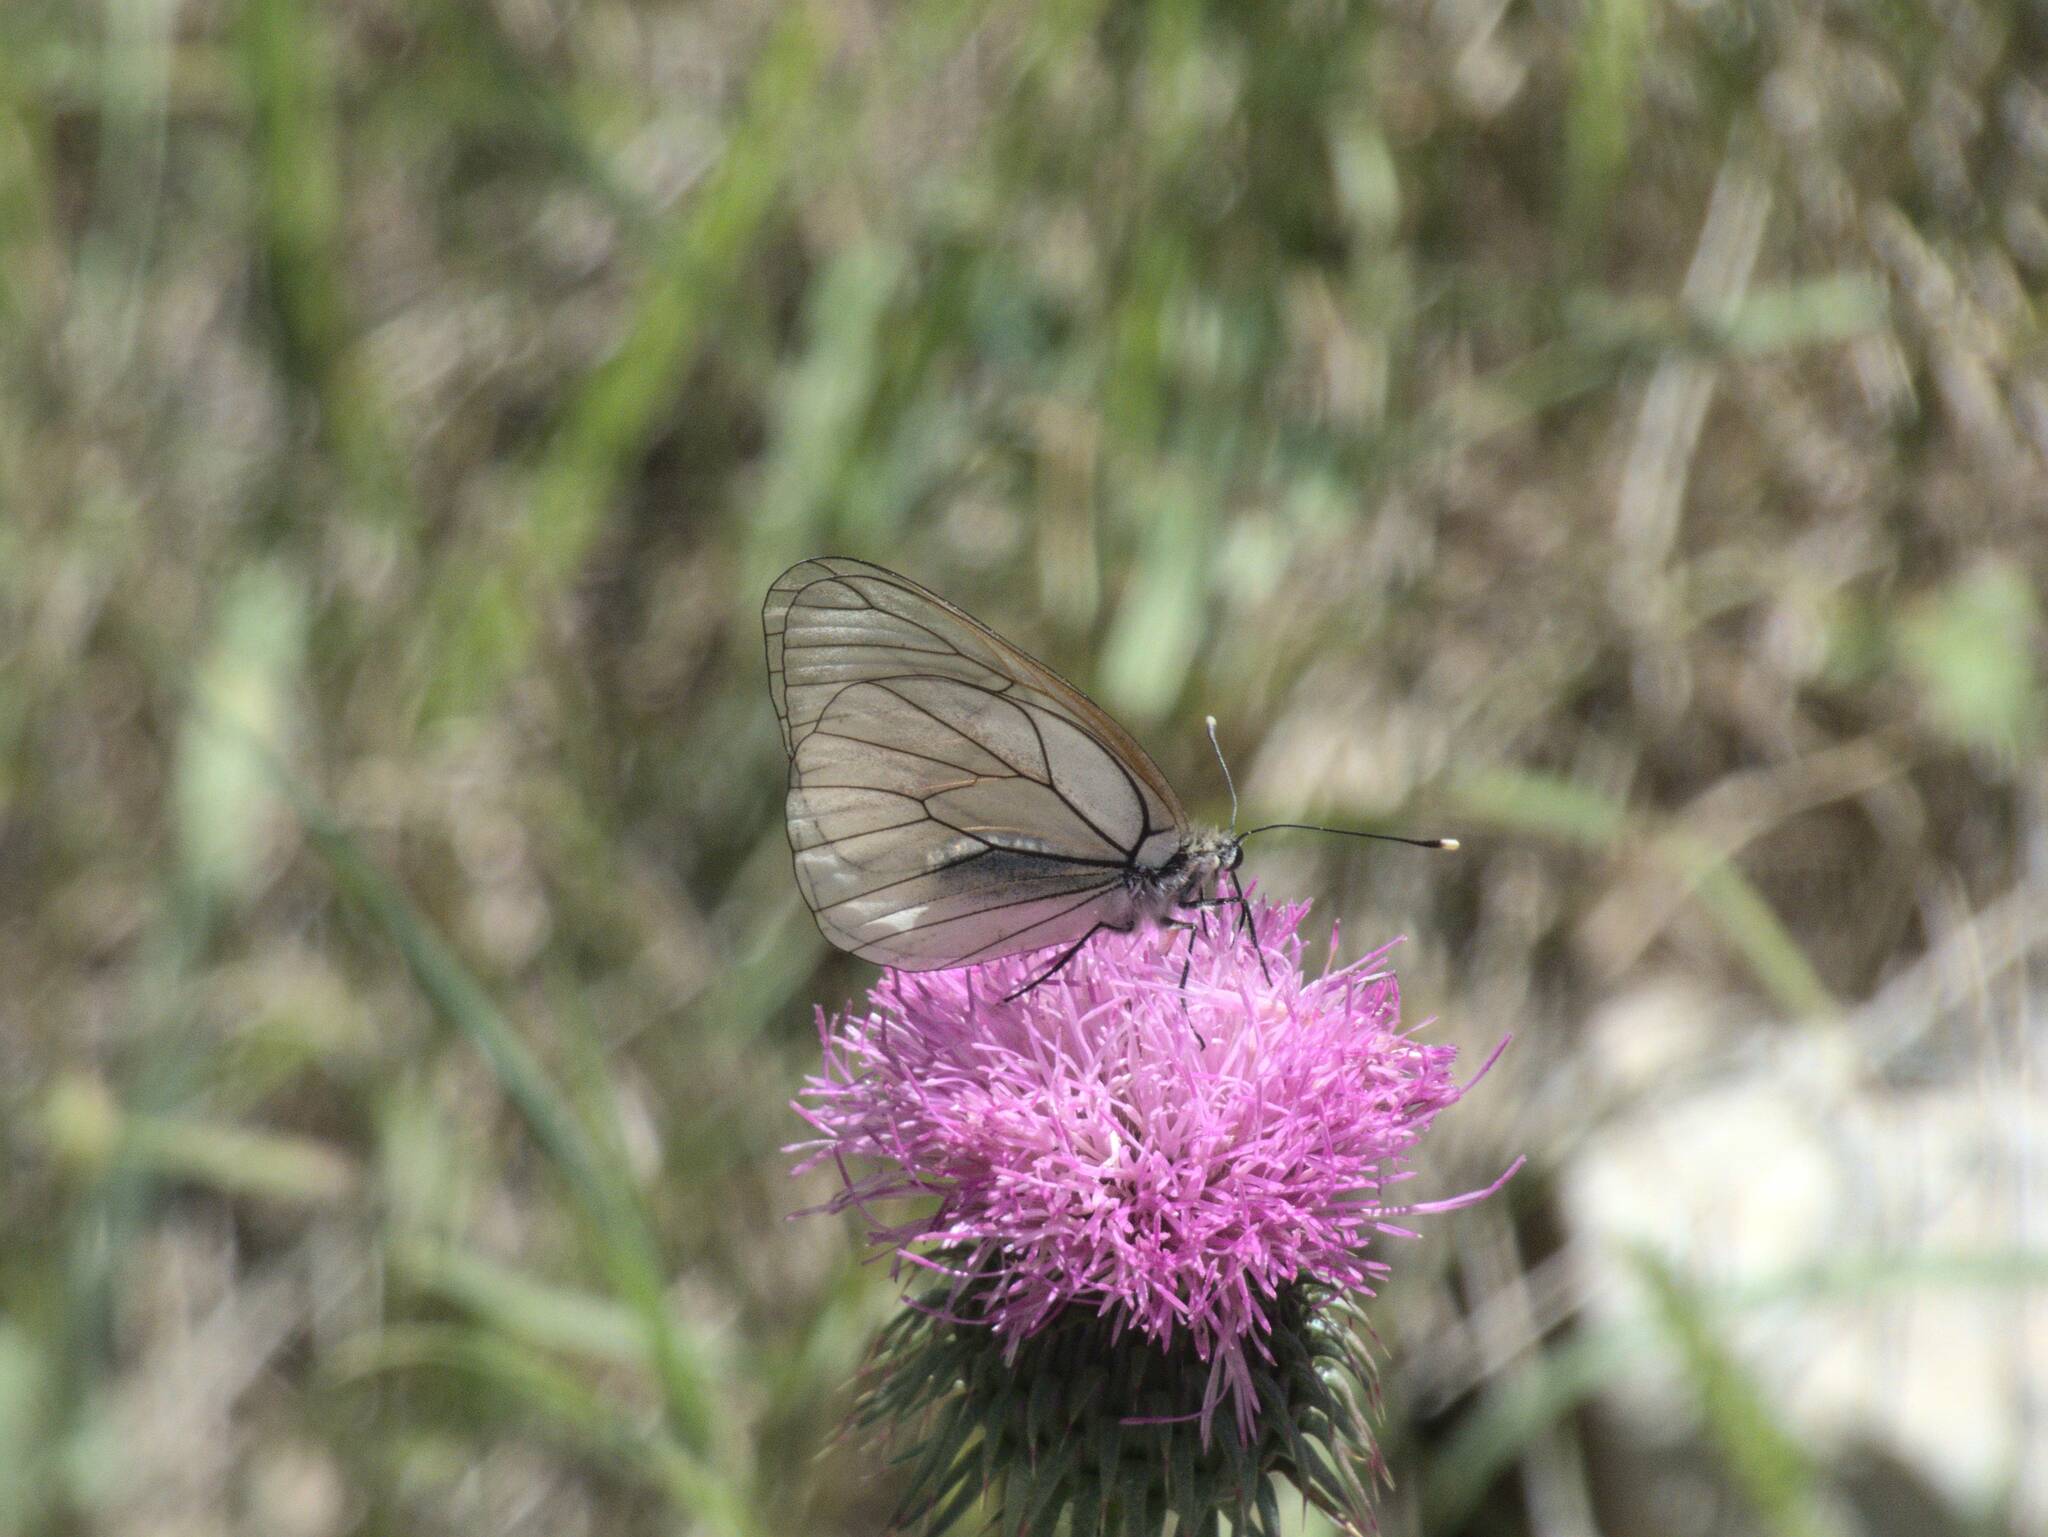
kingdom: Animalia
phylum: Arthropoda
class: Insecta
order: Lepidoptera
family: Pieridae
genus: Aporia
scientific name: Aporia crataegi
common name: Black-veined white
